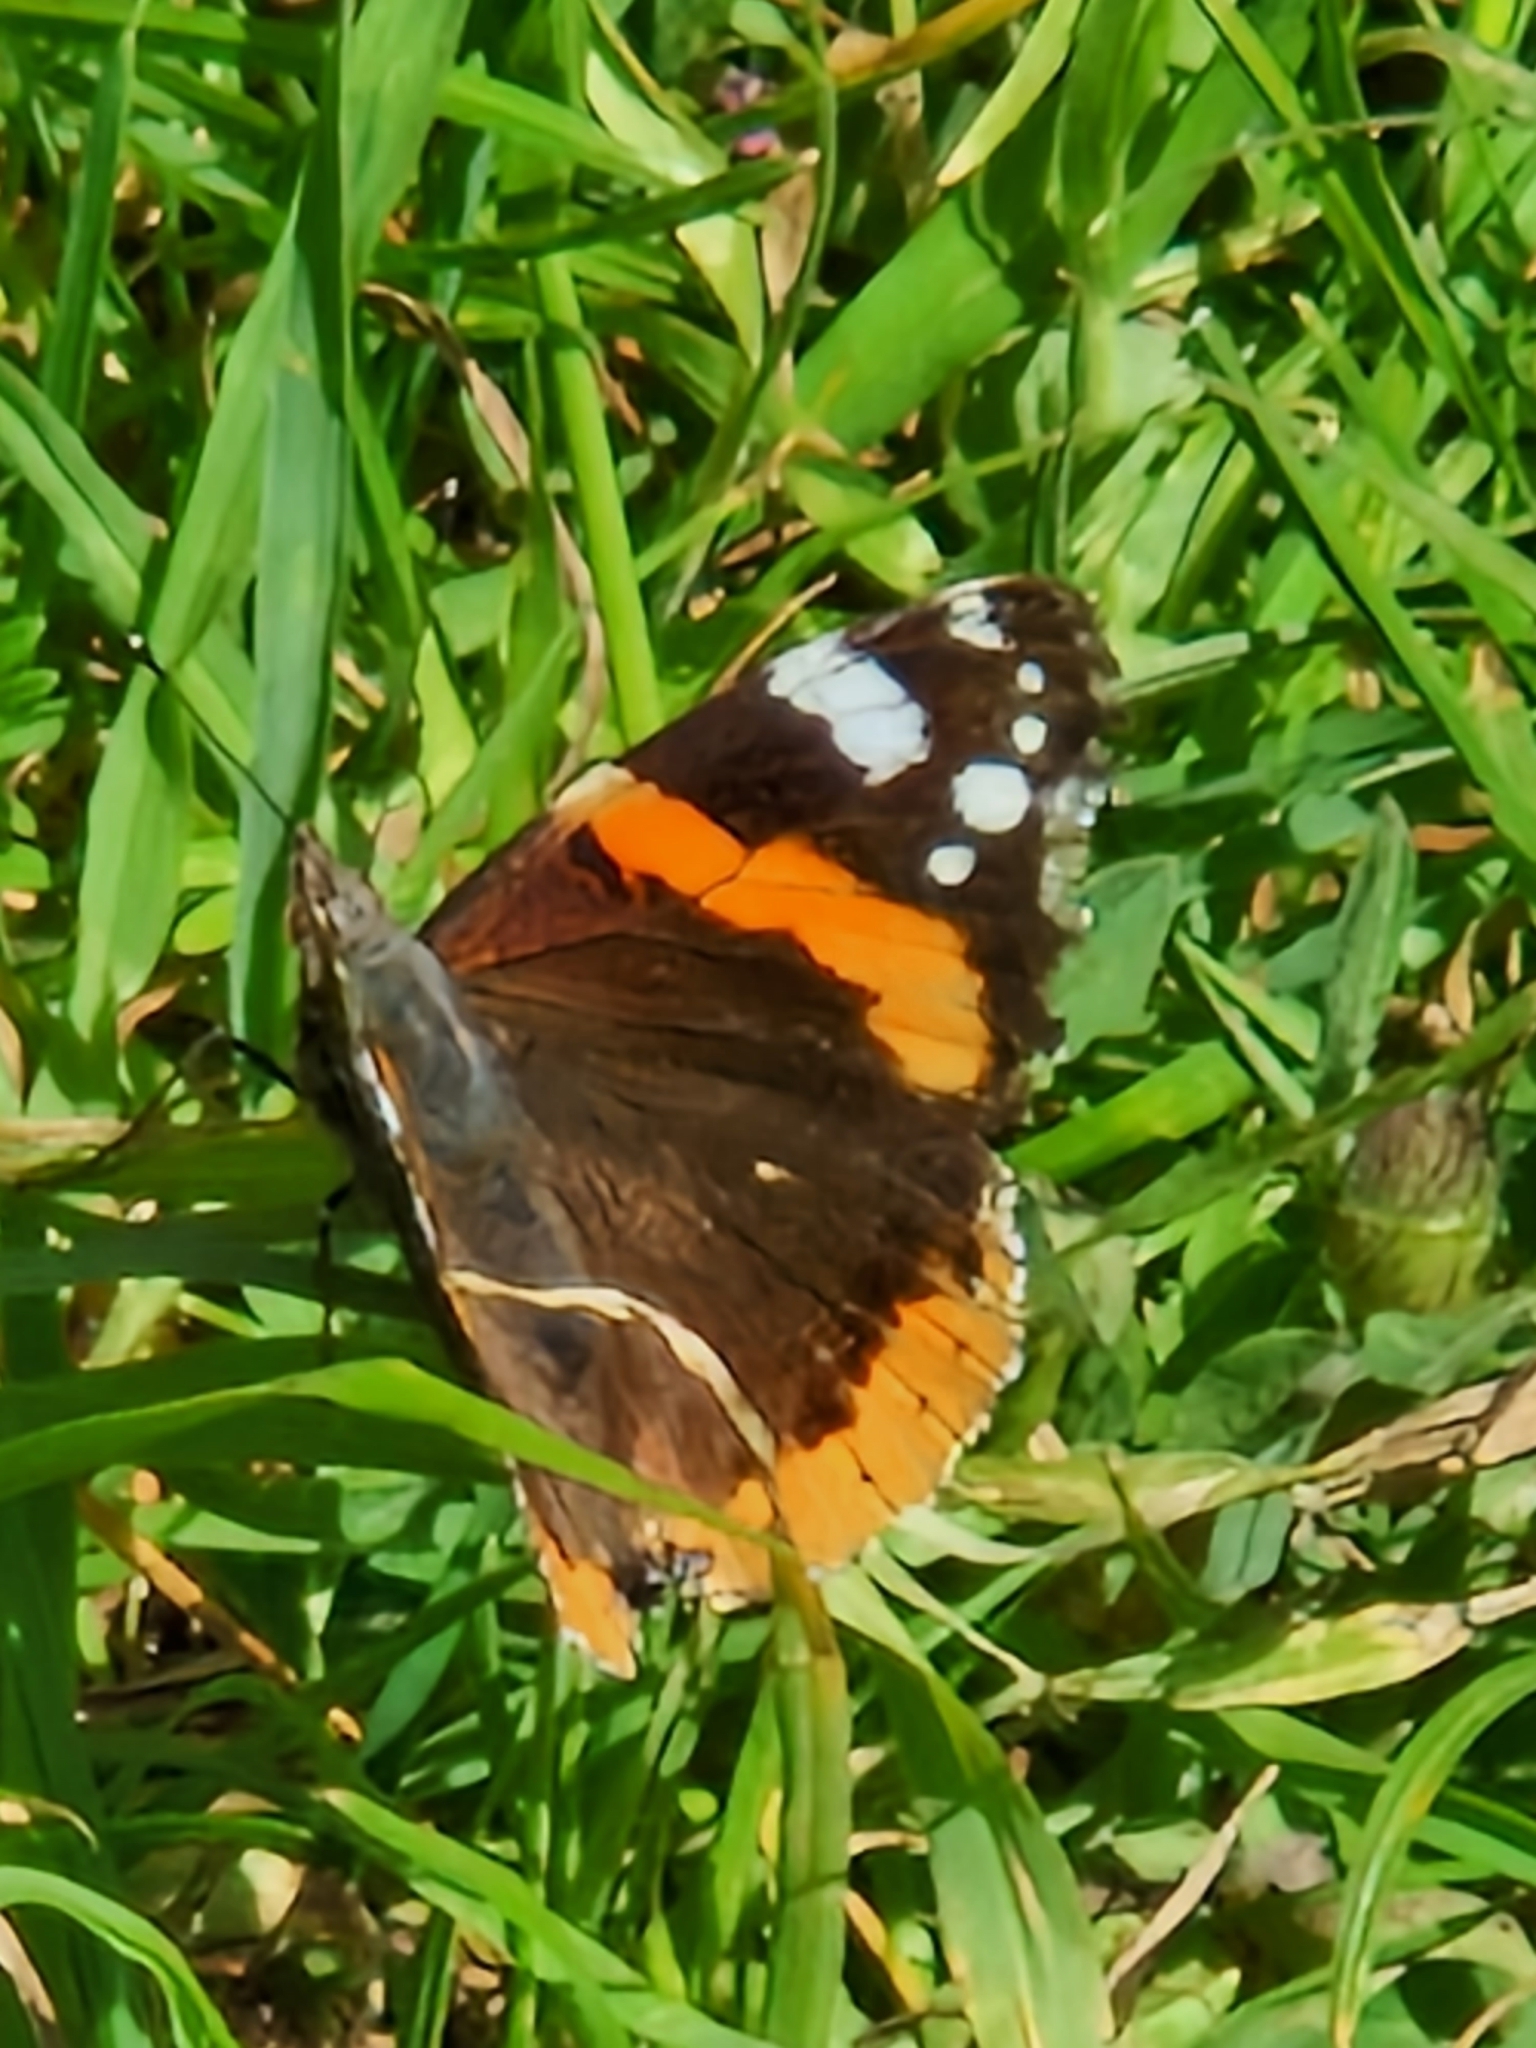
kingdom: Animalia
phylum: Arthropoda
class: Insecta
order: Lepidoptera
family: Nymphalidae
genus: Vanessa
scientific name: Vanessa atalanta
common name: Red admiral
